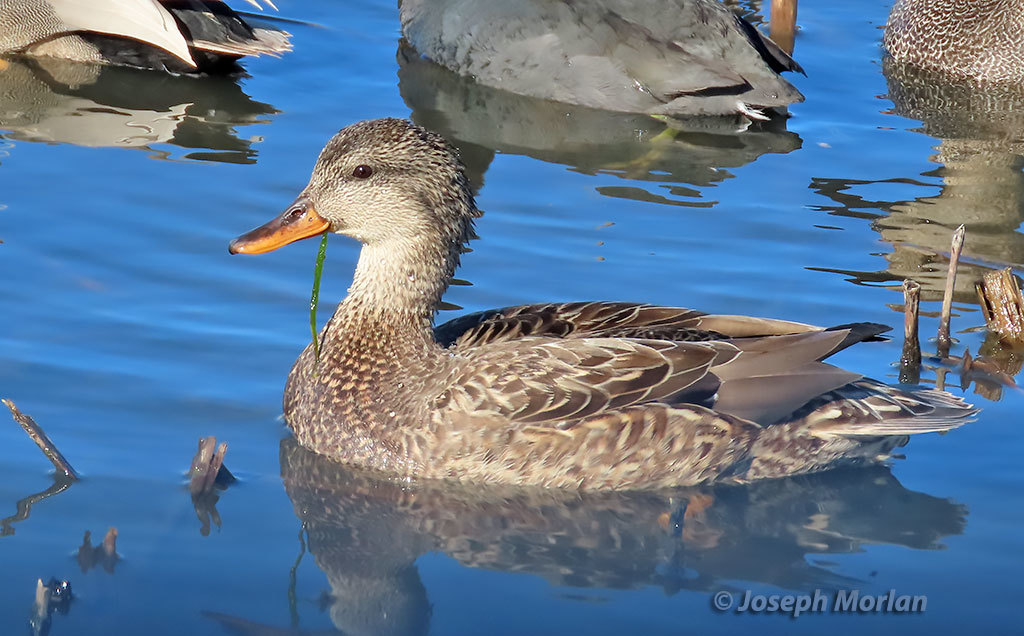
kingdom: Animalia
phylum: Chordata
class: Aves
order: Anseriformes
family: Anatidae
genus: Mareca
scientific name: Mareca strepera
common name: Gadwall
